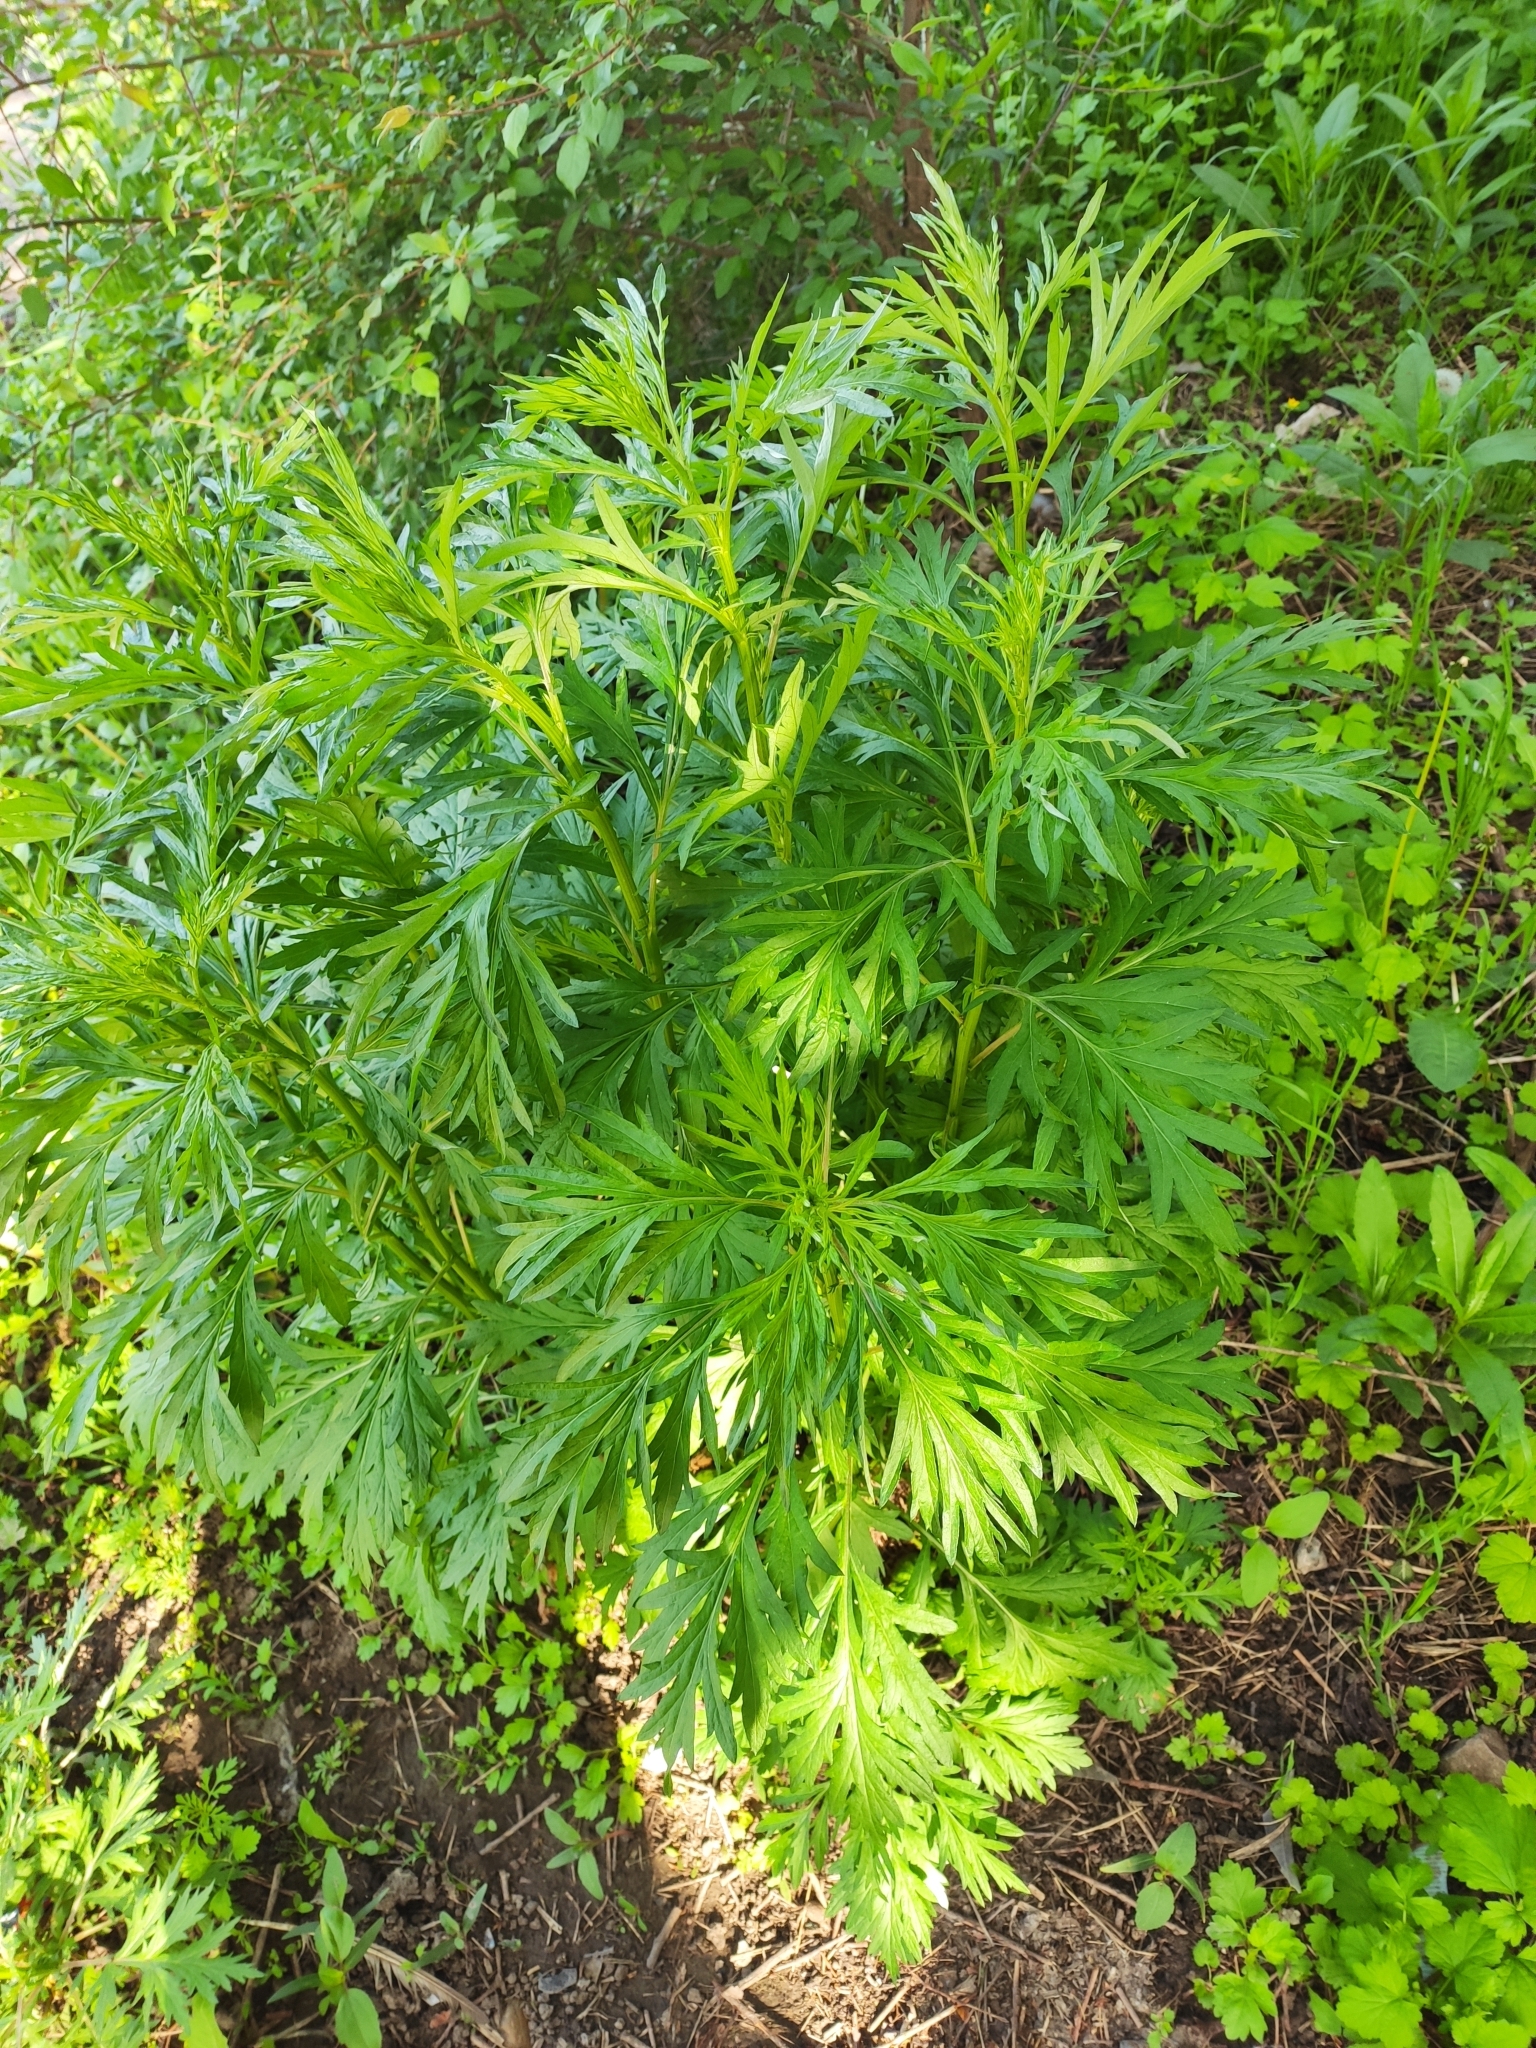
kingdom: Plantae
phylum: Tracheophyta
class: Magnoliopsida
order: Asterales
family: Asteraceae
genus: Artemisia
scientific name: Artemisia vulgaris
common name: Mugwort
